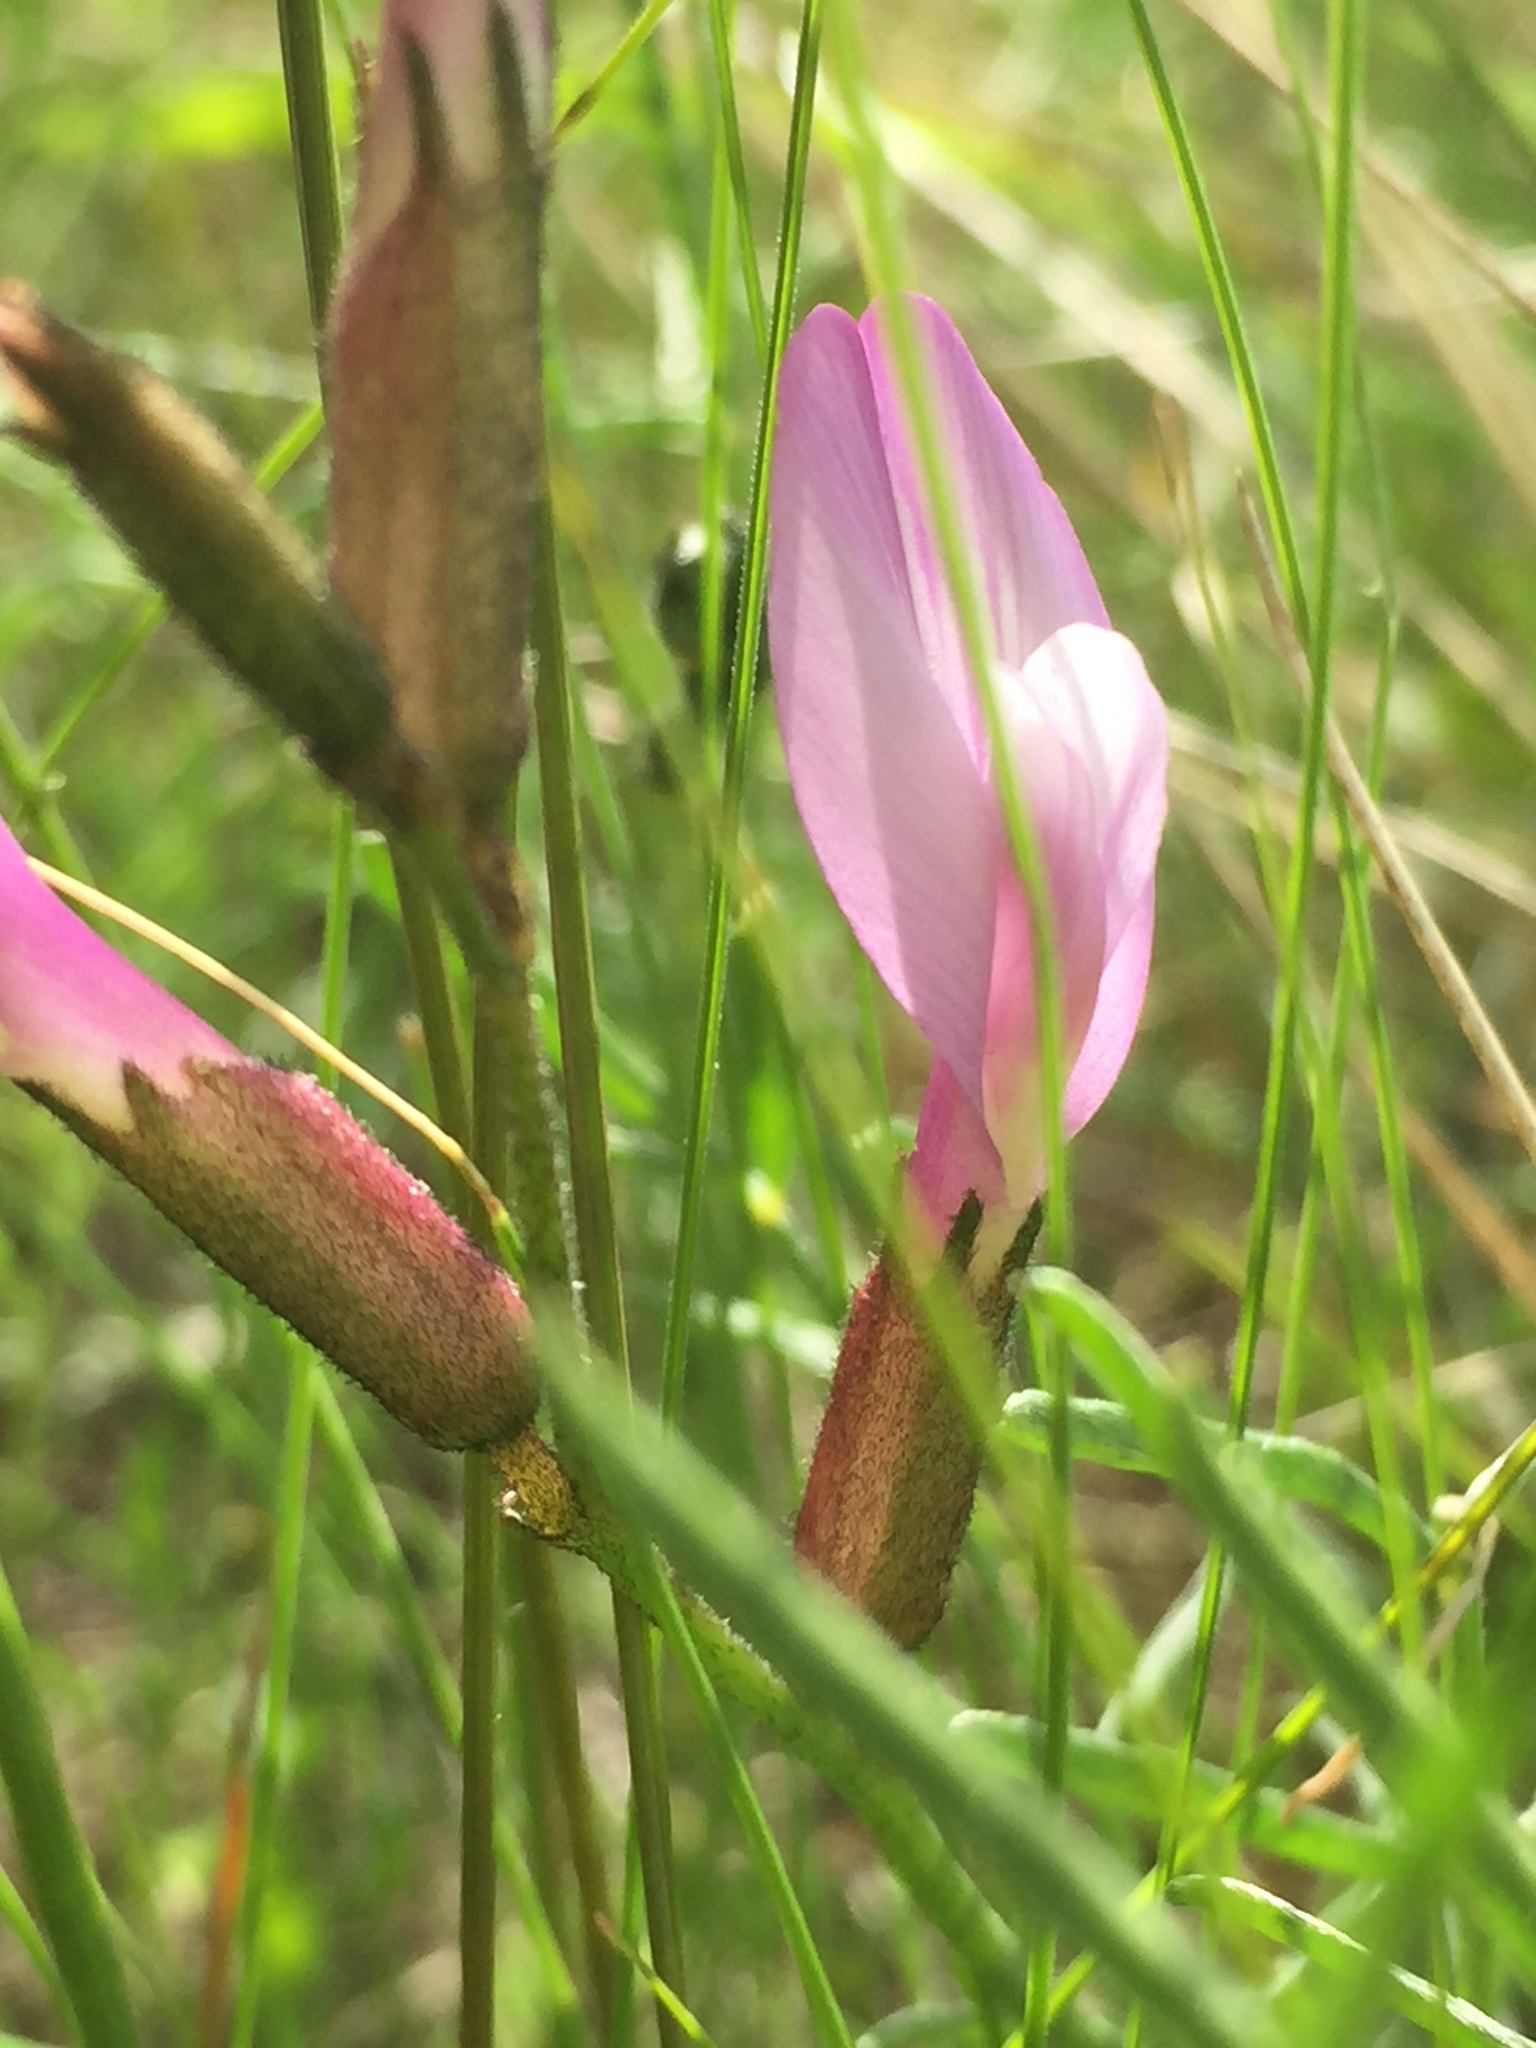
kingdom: Plantae
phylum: Tracheophyta
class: Magnoliopsida
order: Fabales
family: Fabaceae
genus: Astragalus
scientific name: Astragalus macropus
